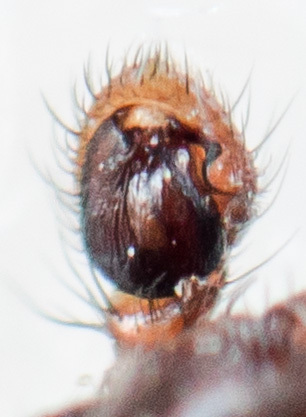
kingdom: Animalia
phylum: Arthropoda
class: Arachnida
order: Araneae
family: Thomisidae
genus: Psammitis
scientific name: Psammitis minor
